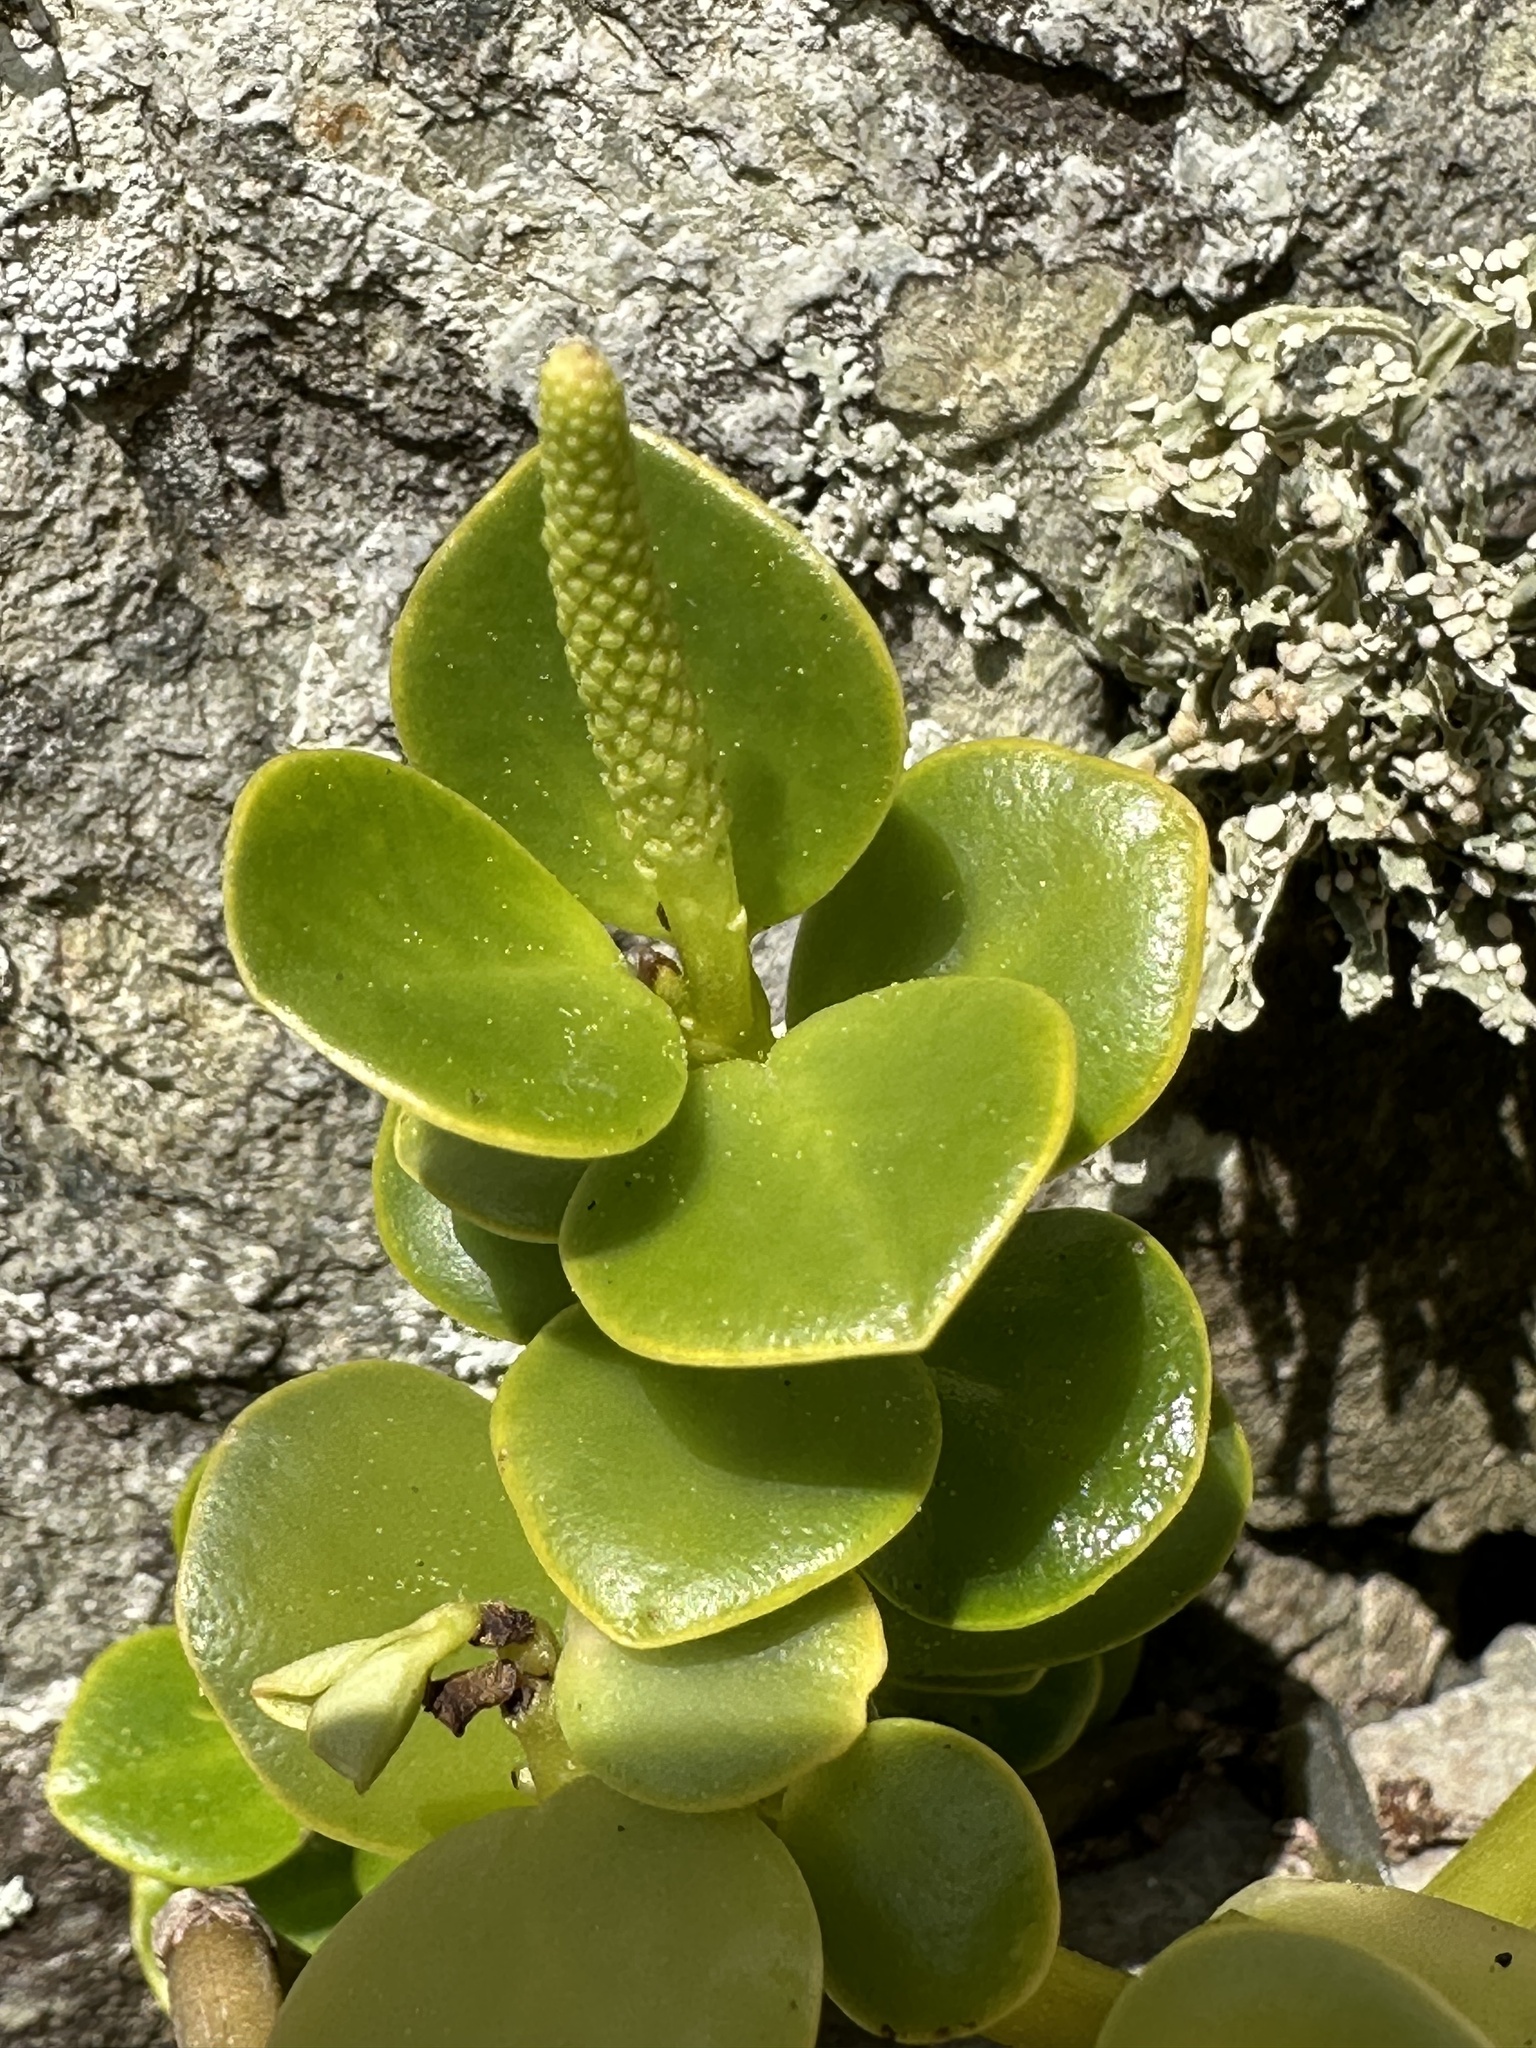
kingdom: Plantae
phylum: Tracheophyta
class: Magnoliopsida
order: Piperales
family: Piperaceae
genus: Peperomia
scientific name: Peperomia urvilleana
